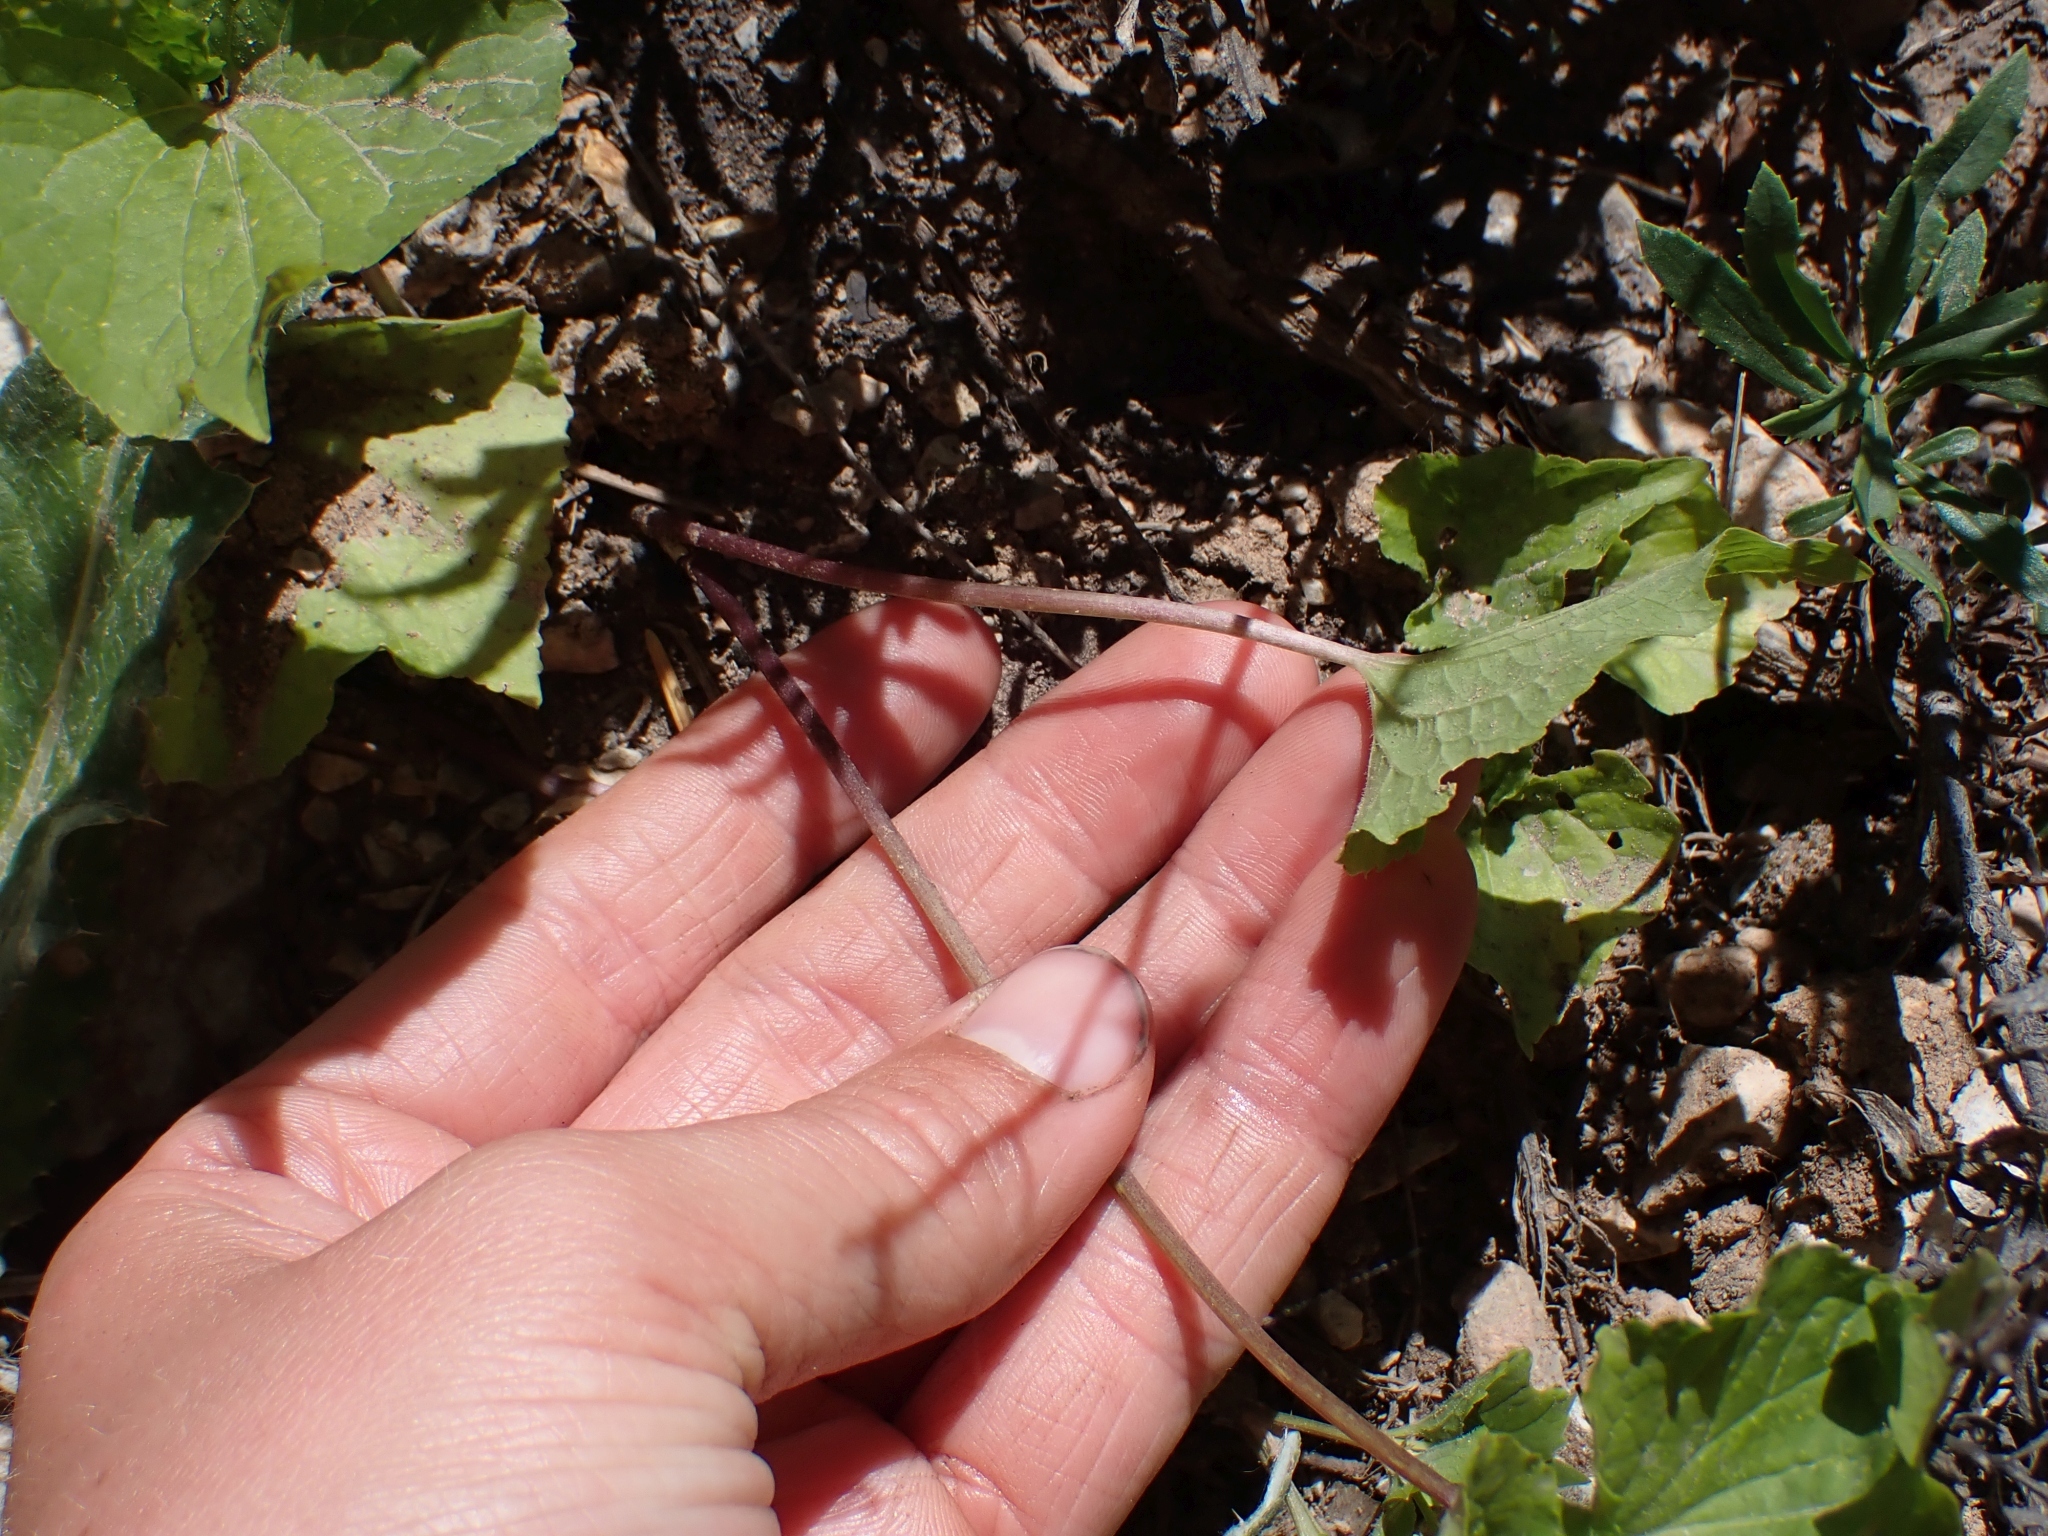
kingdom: Plantae
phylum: Tracheophyta
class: Magnoliopsida
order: Malpighiales
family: Violaceae
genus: Viola
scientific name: Viola canadensis
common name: Canada violet
